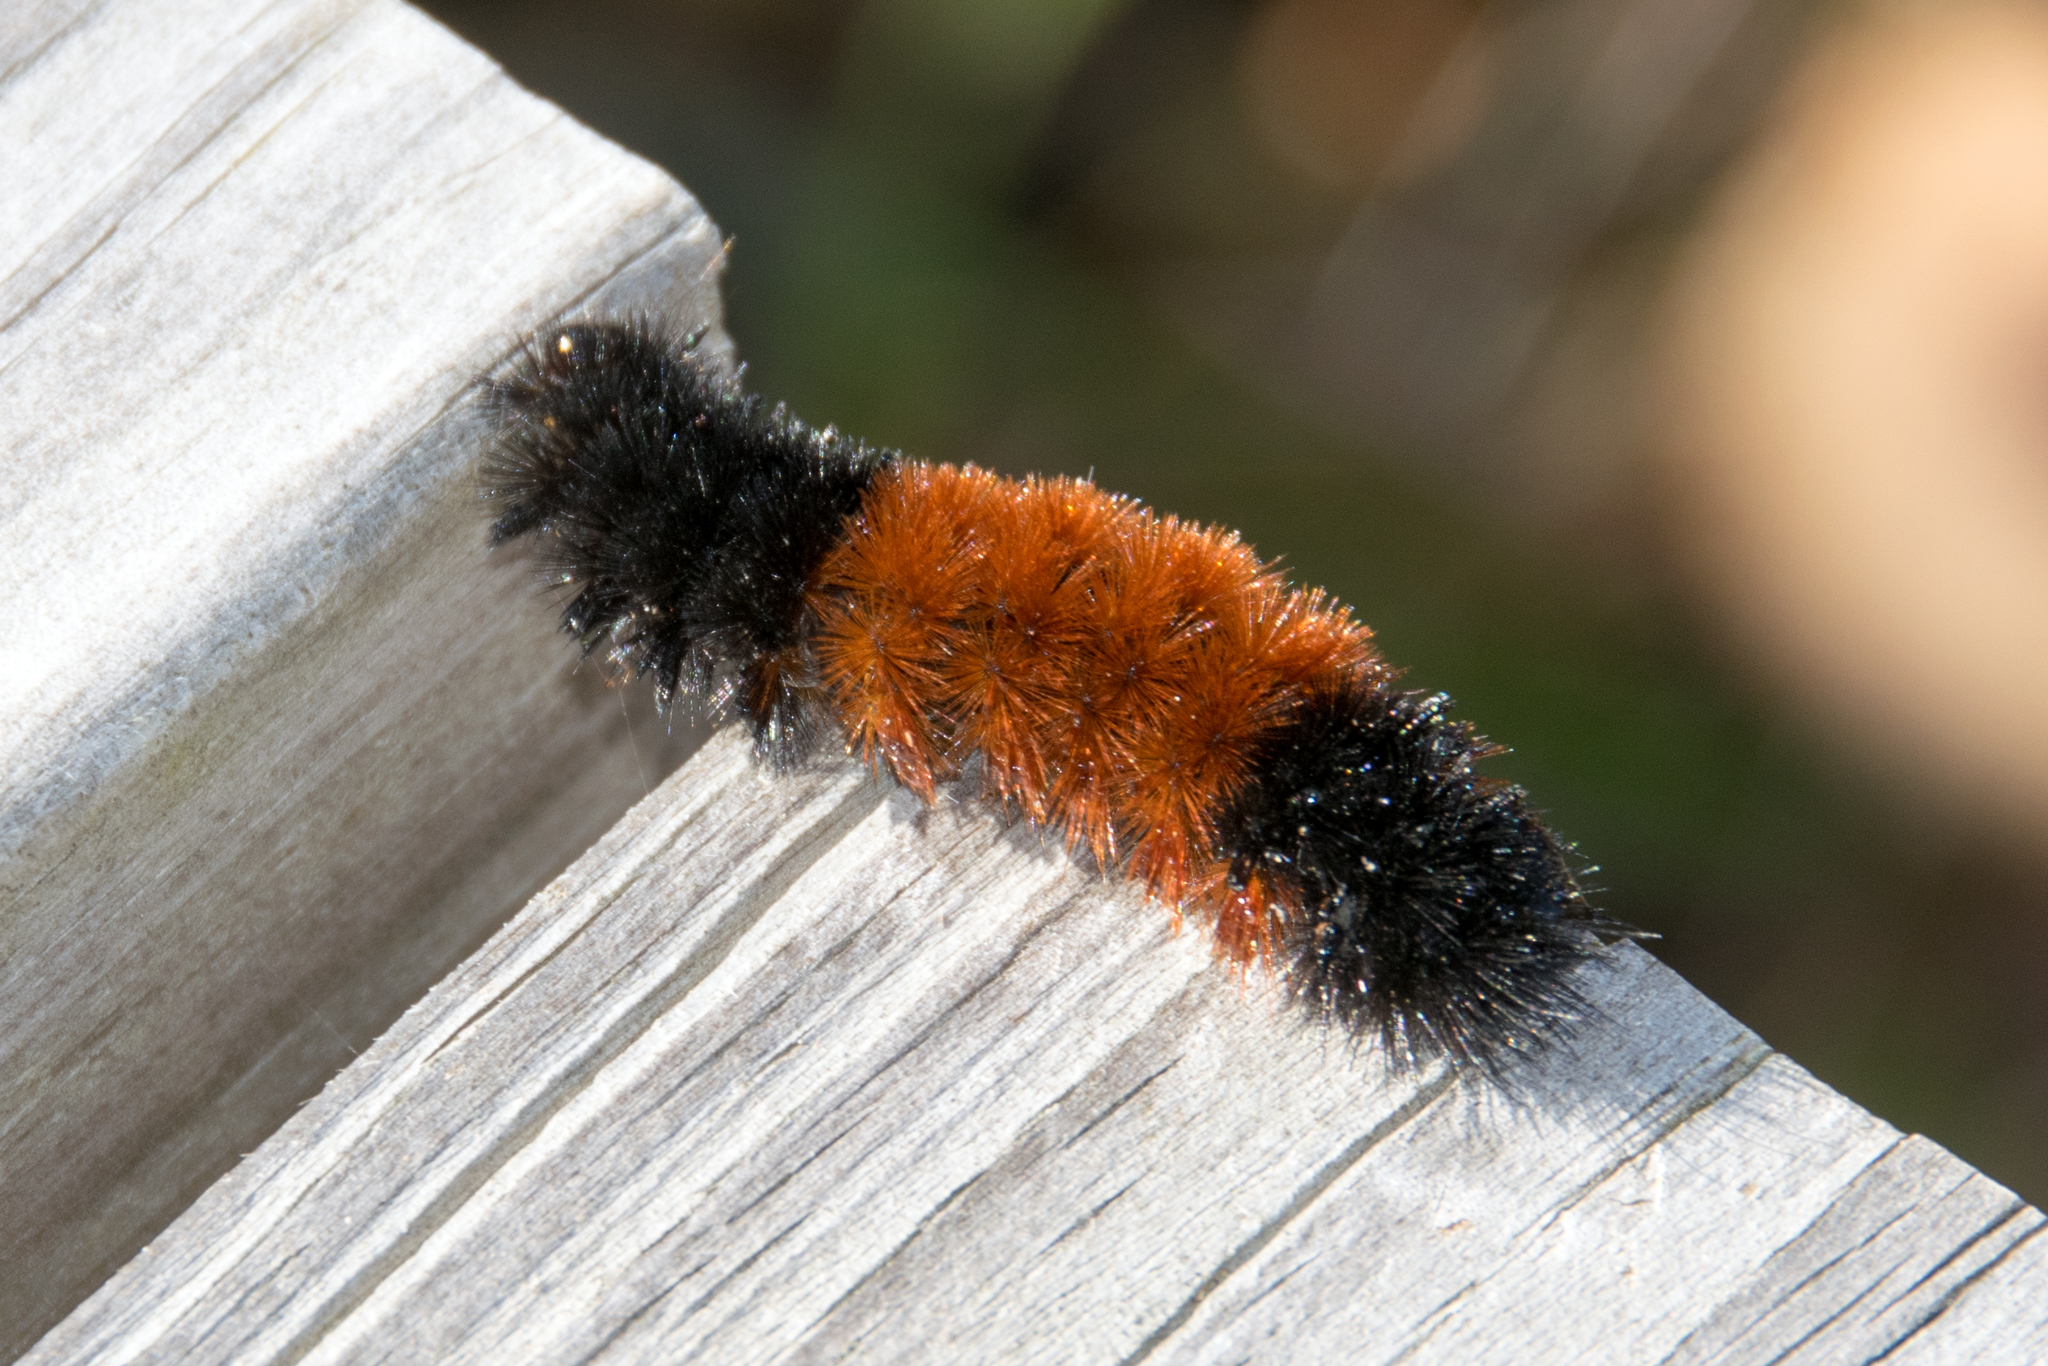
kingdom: Animalia
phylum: Arthropoda
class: Insecta
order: Lepidoptera
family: Erebidae
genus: Pyrrharctia
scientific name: Pyrrharctia isabella
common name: Isabella tiger moth
